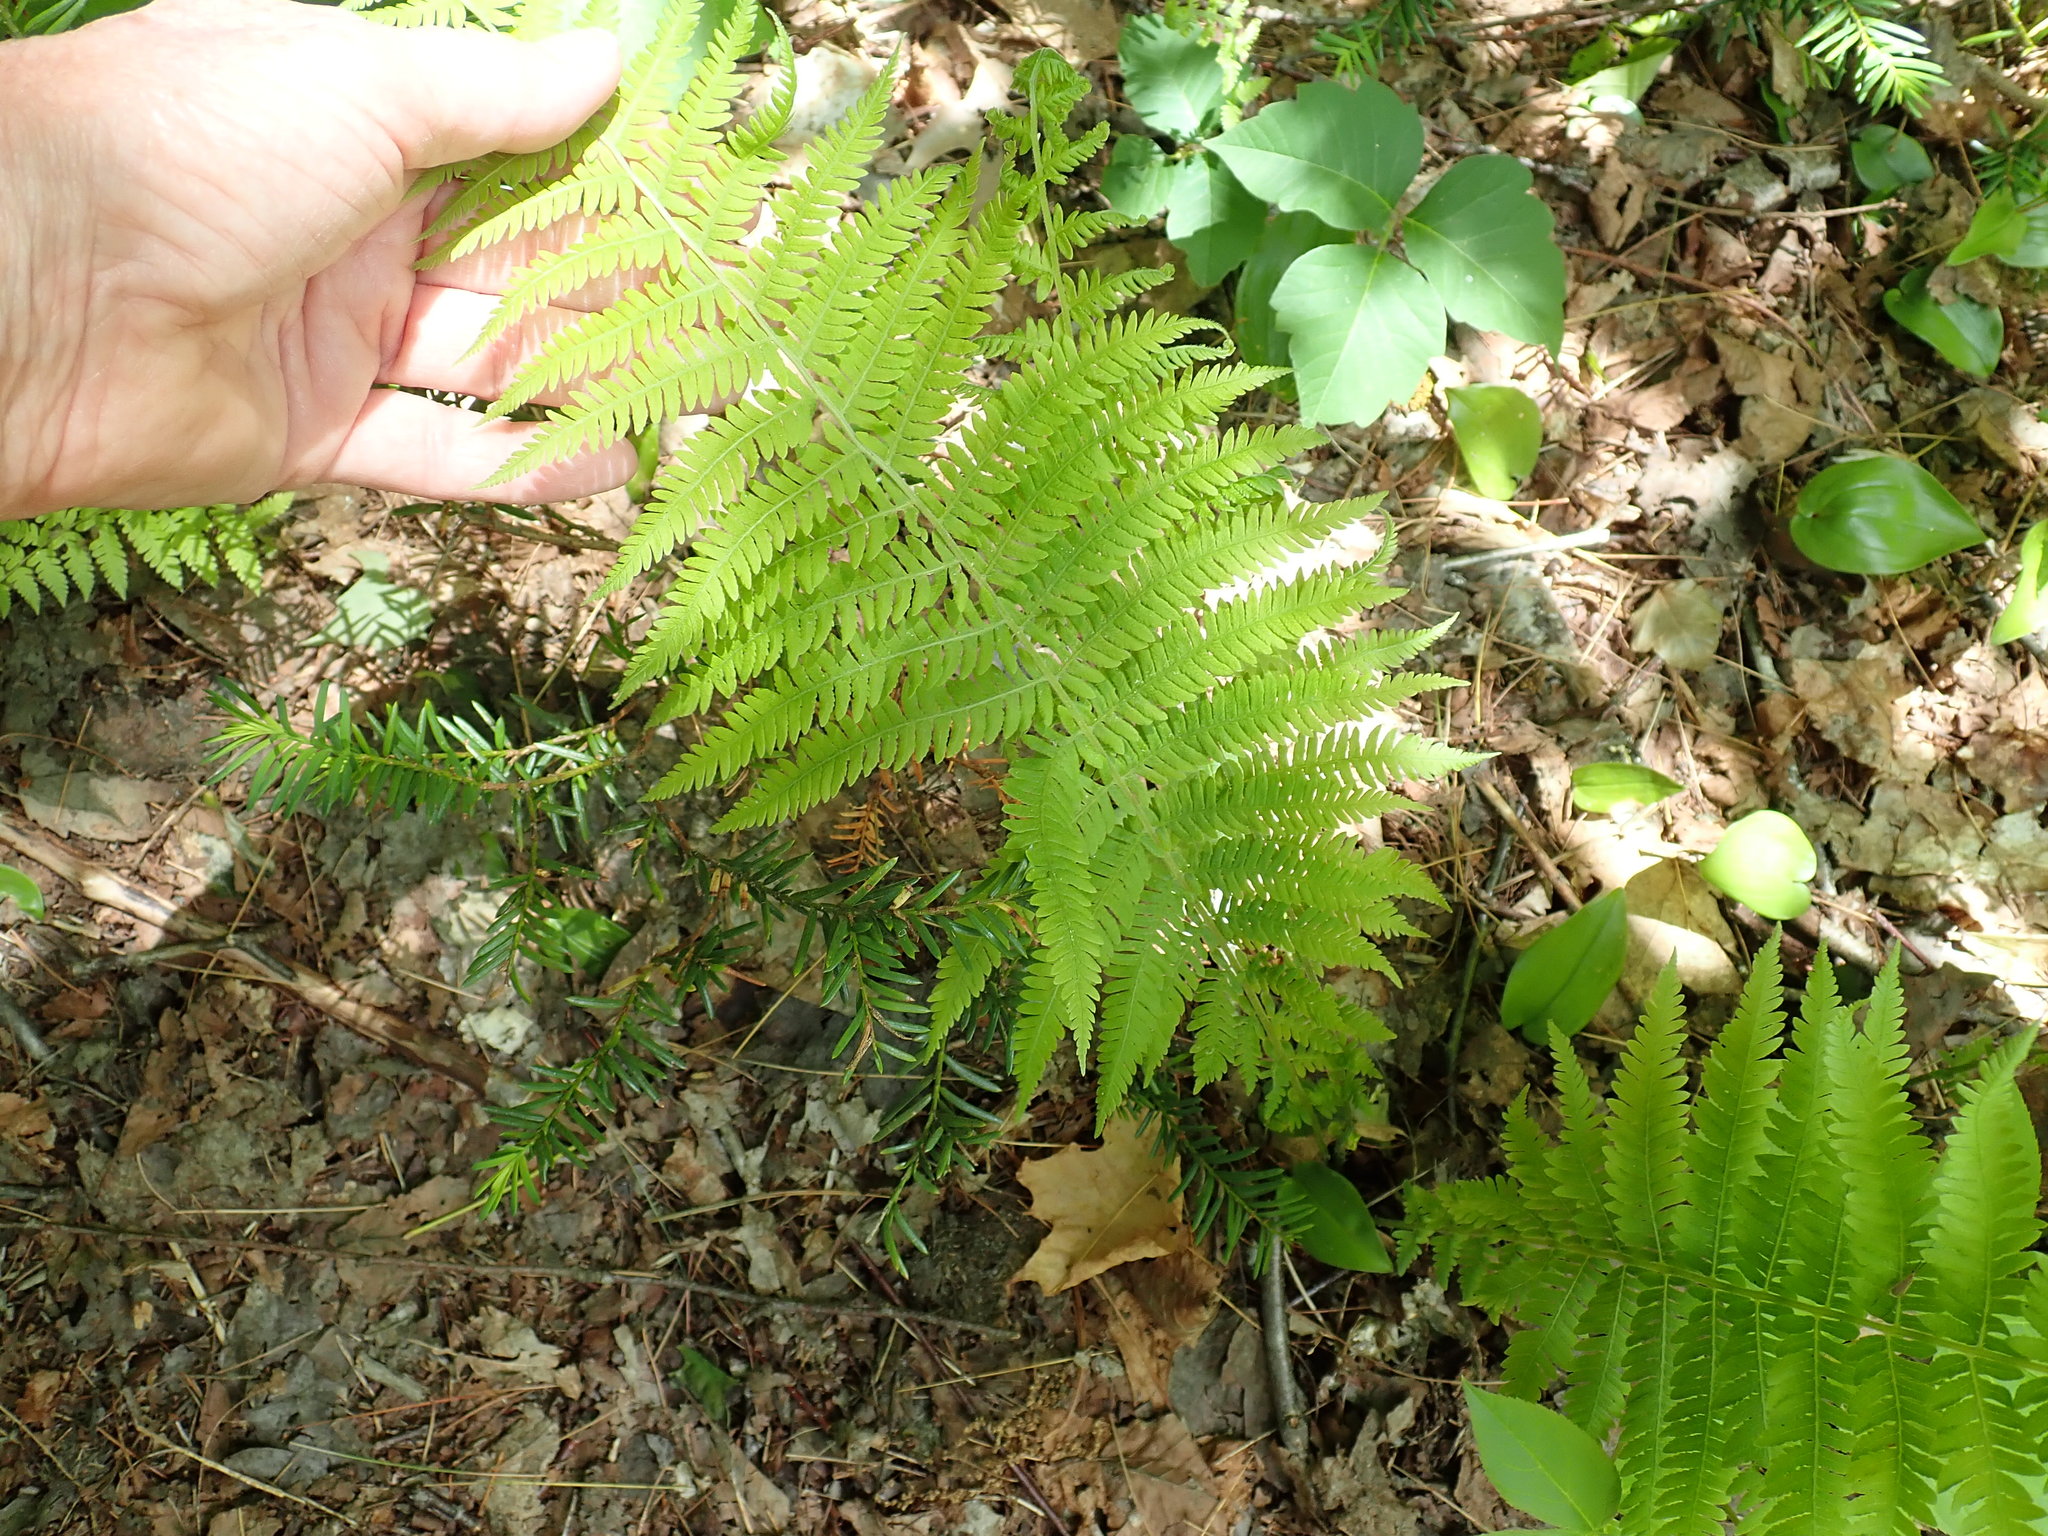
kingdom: Plantae
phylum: Tracheophyta
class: Polypodiopsida
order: Polypodiales
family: Thelypteridaceae
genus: Amauropelta
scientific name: Amauropelta noveboracensis
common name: New york fern
